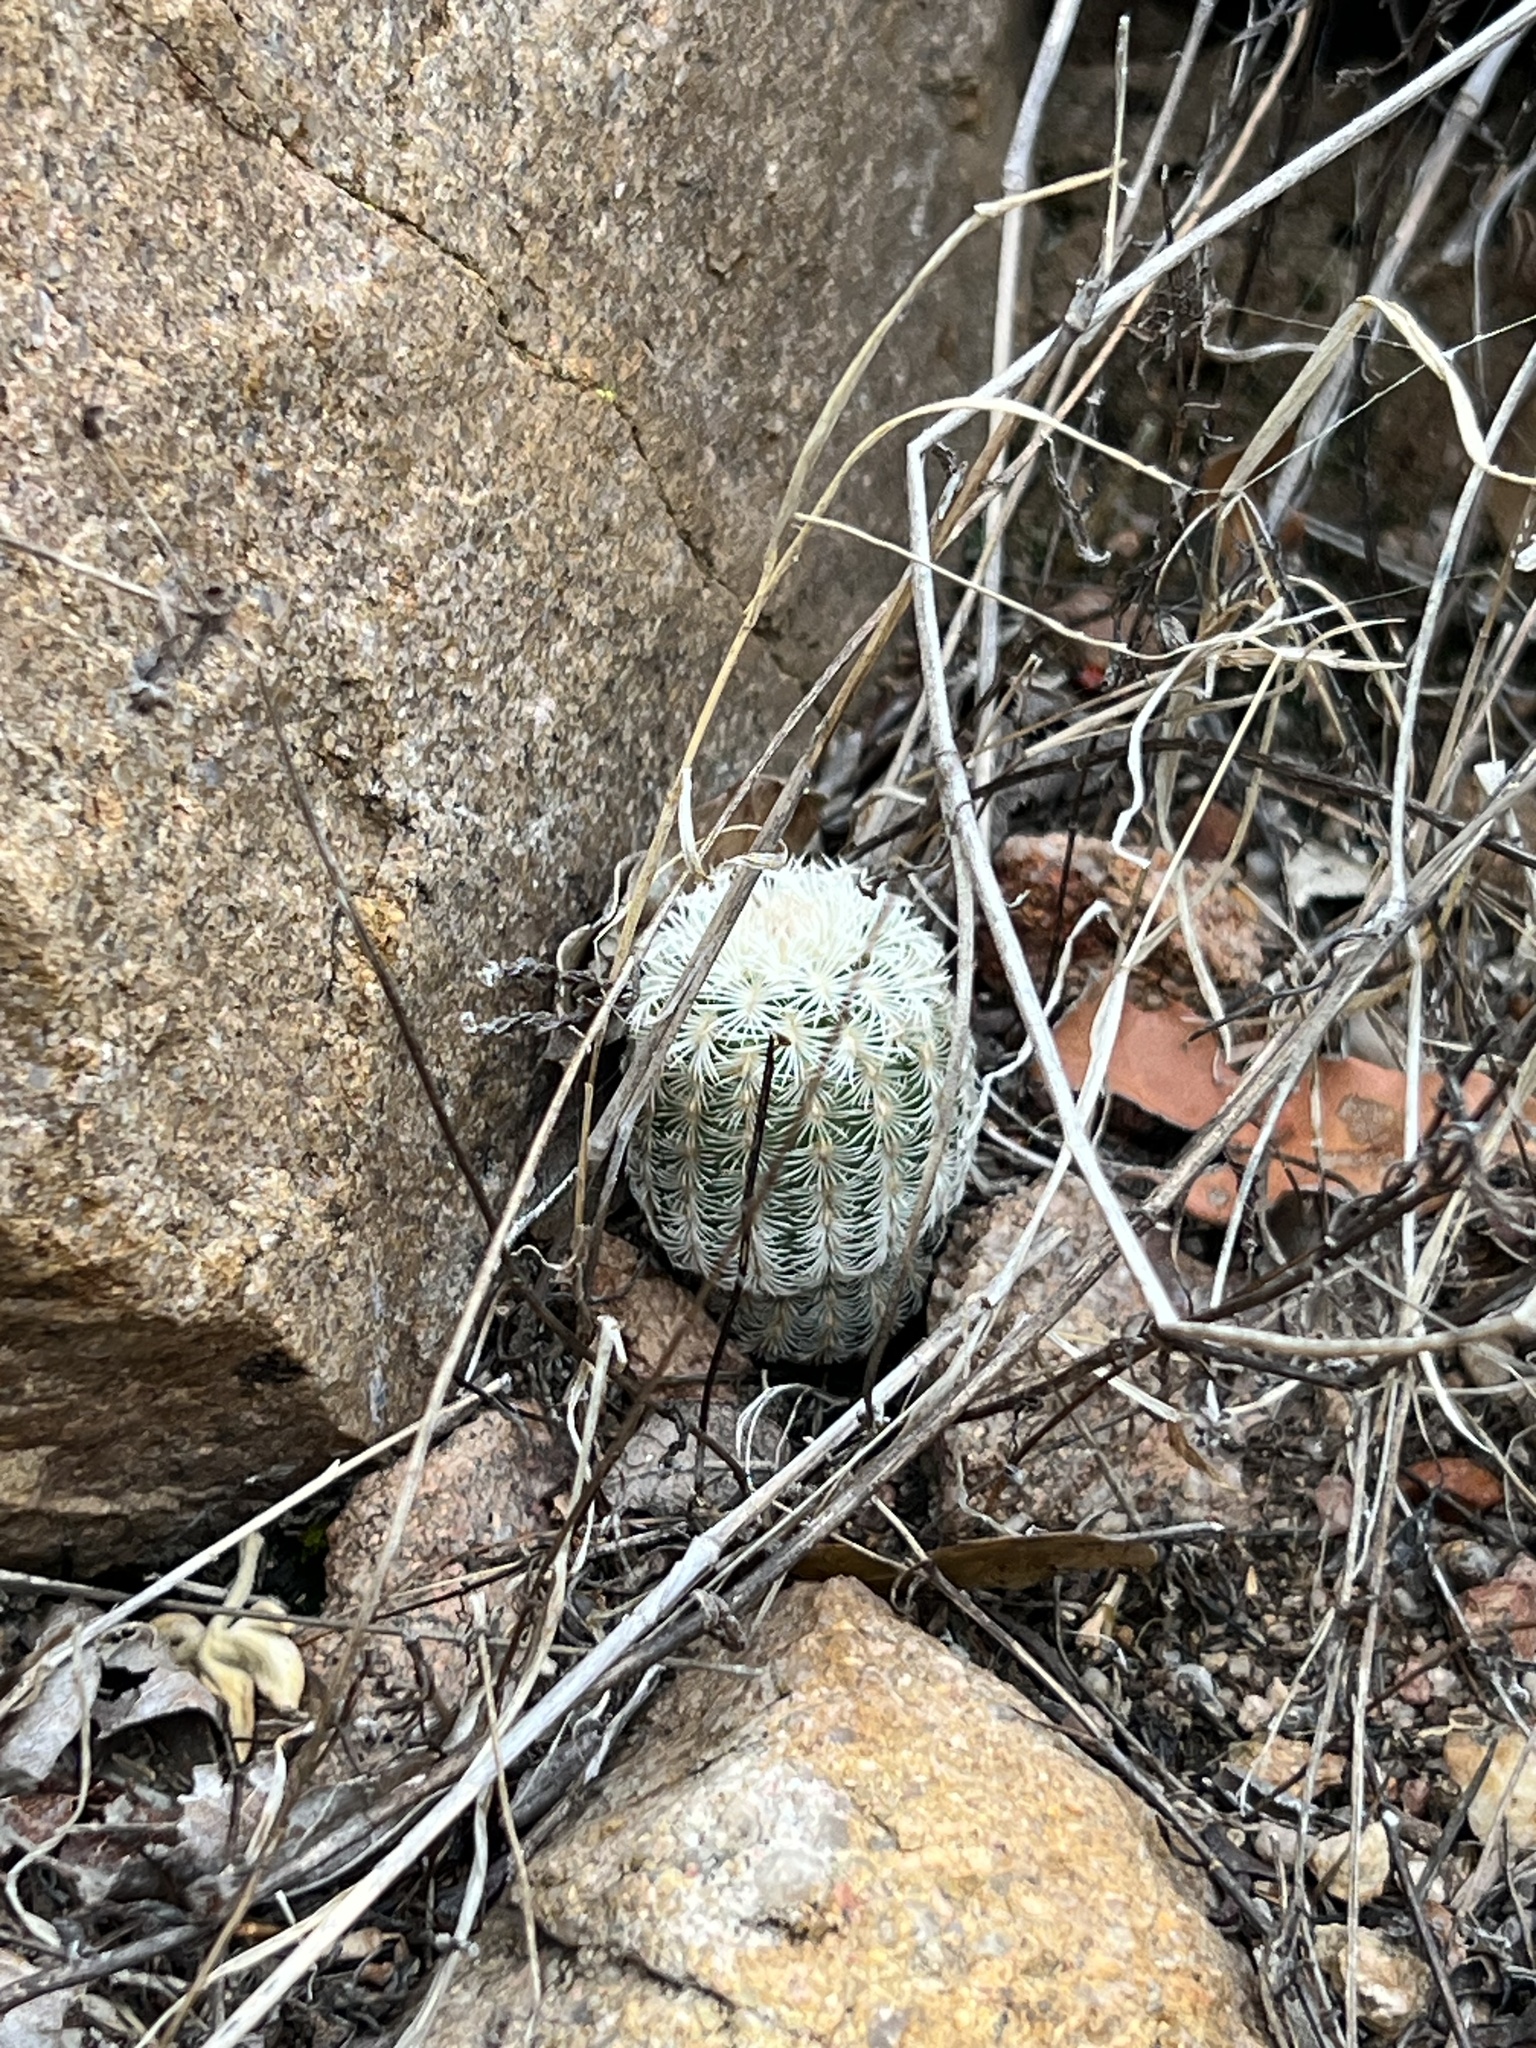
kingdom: Plantae
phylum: Tracheophyta
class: Magnoliopsida
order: Caryophyllales
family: Cactaceae
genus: Echinocereus
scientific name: Echinocereus rigidissimus
